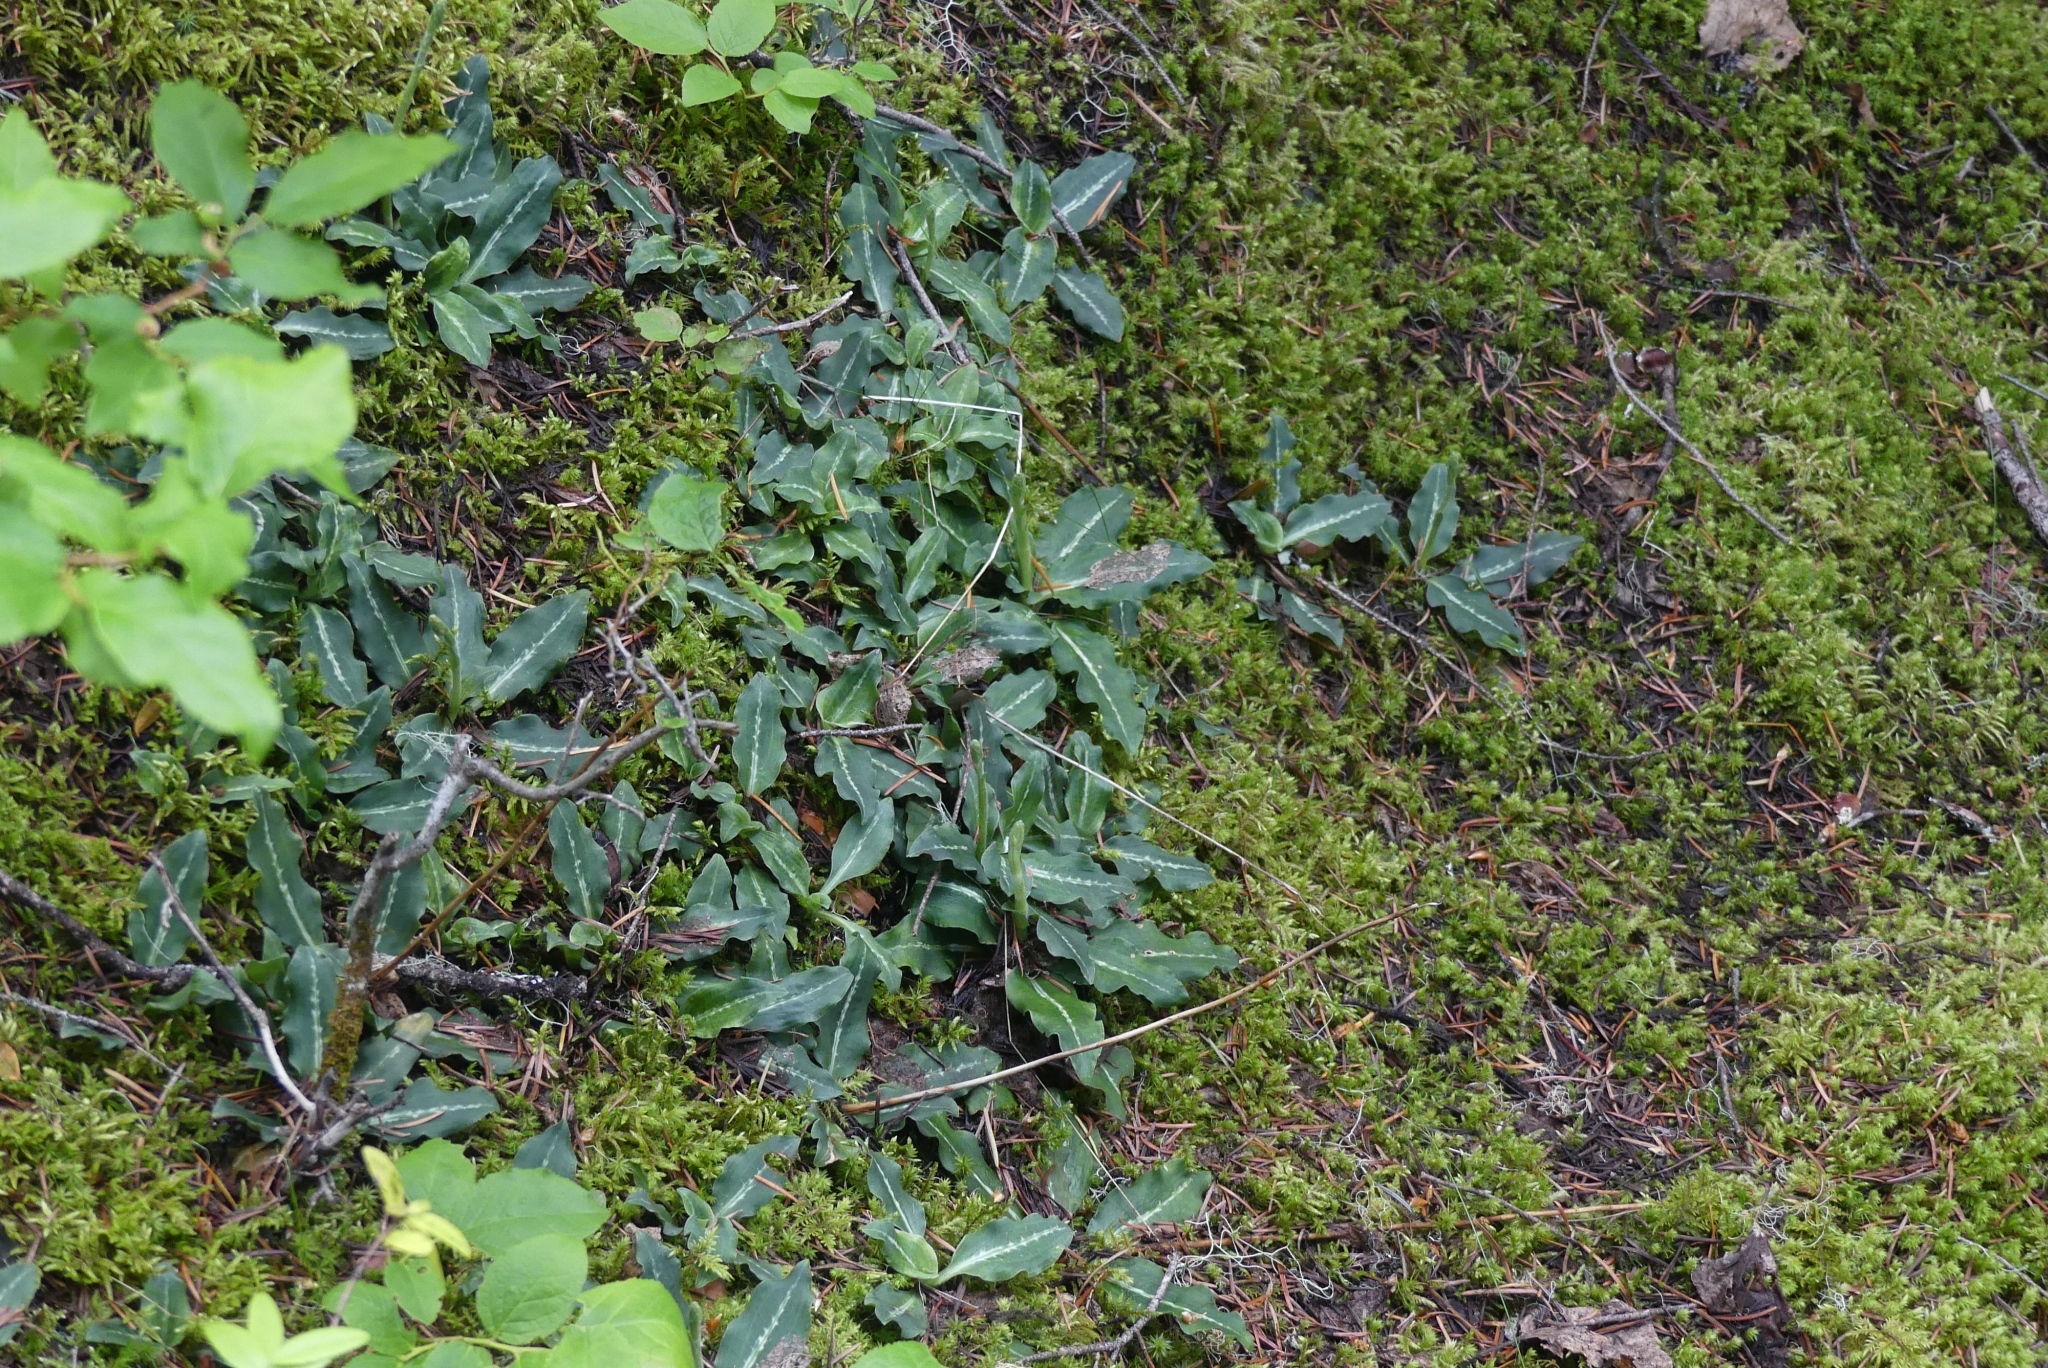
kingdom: Plantae
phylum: Tracheophyta
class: Liliopsida
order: Asparagales
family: Orchidaceae
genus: Goodyera
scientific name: Goodyera oblongifolia
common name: Giant rattlesnake-plantain
